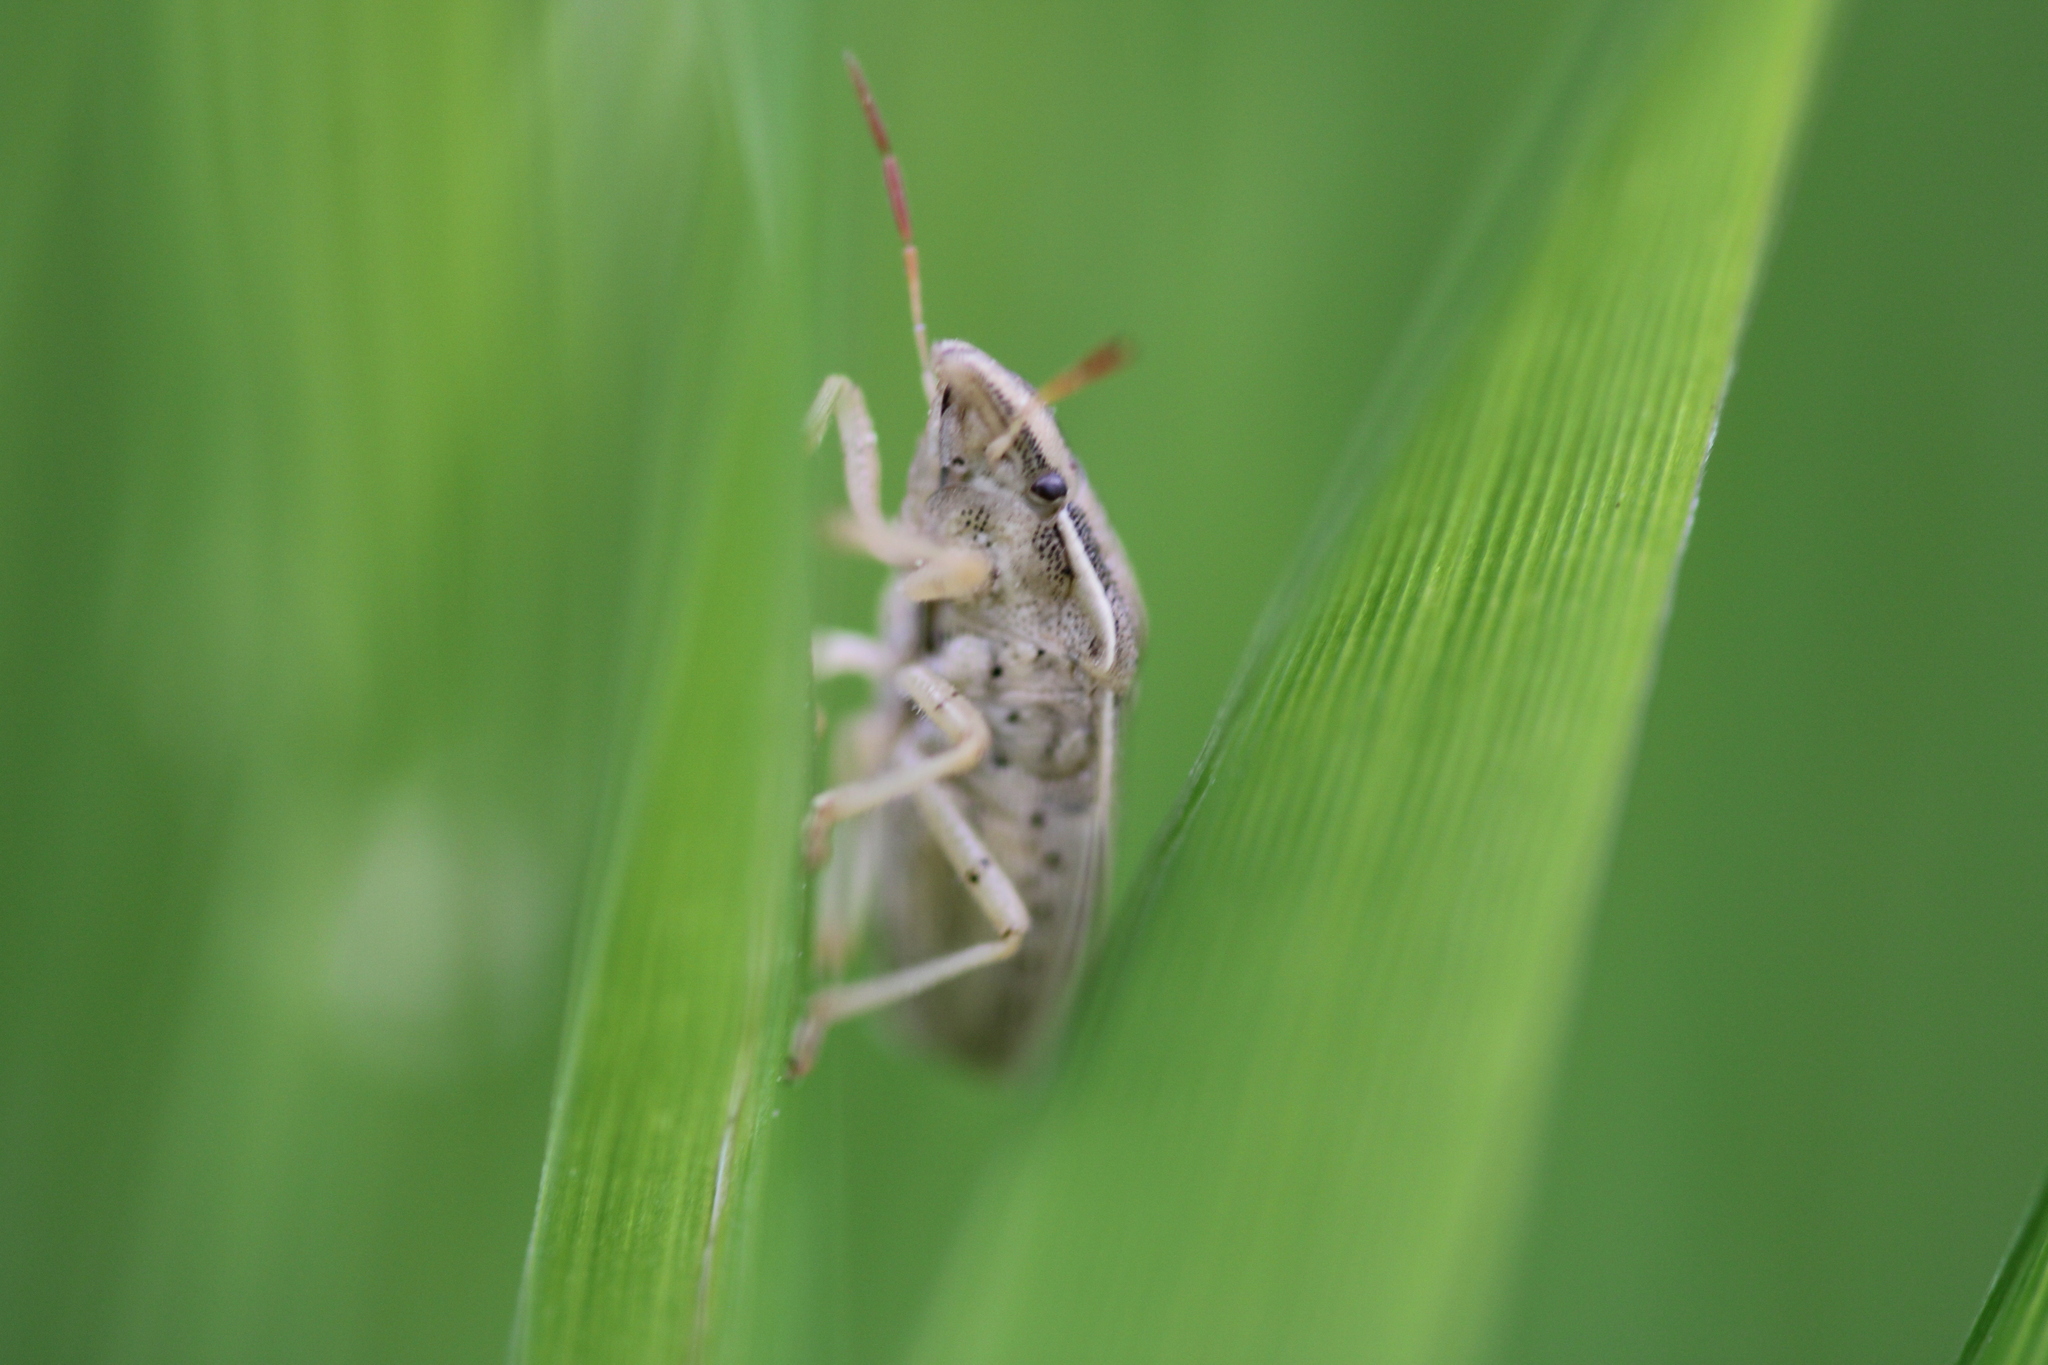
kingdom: Animalia
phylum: Arthropoda
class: Insecta
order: Hemiptera
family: Pentatomidae
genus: Aelia
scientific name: Aelia acuminata
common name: Bishop's mitre
